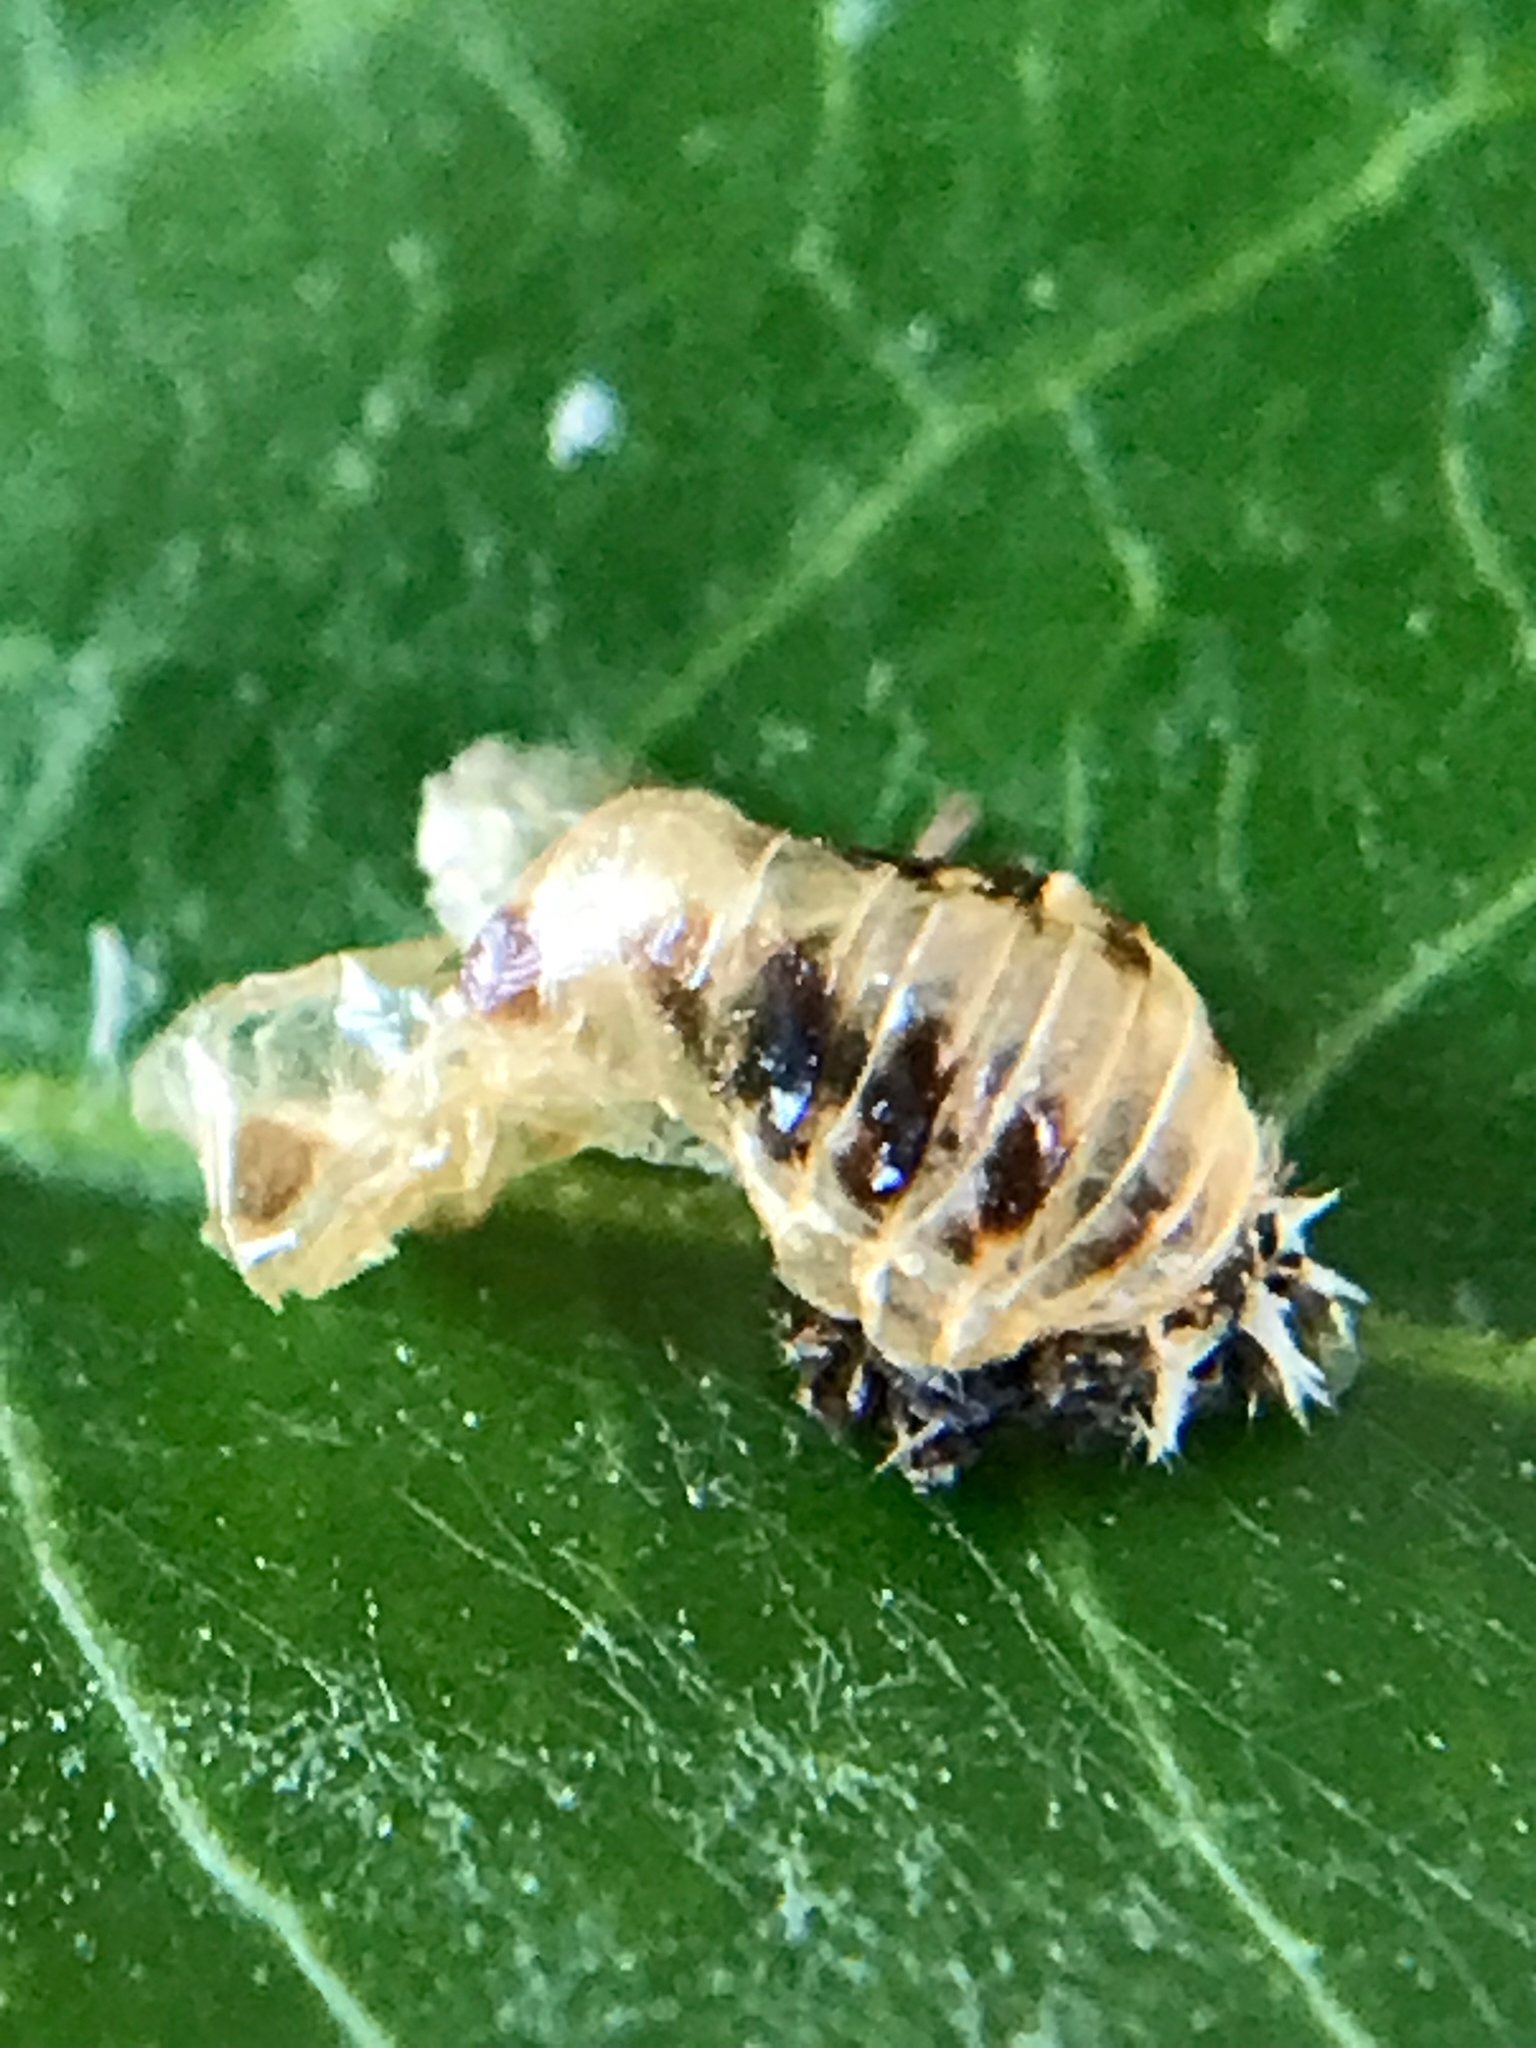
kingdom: Animalia
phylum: Arthropoda
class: Insecta
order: Coleoptera
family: Coccinellidae
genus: Harmonia
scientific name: Harmonia axyridis
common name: Harlequin ladybird
